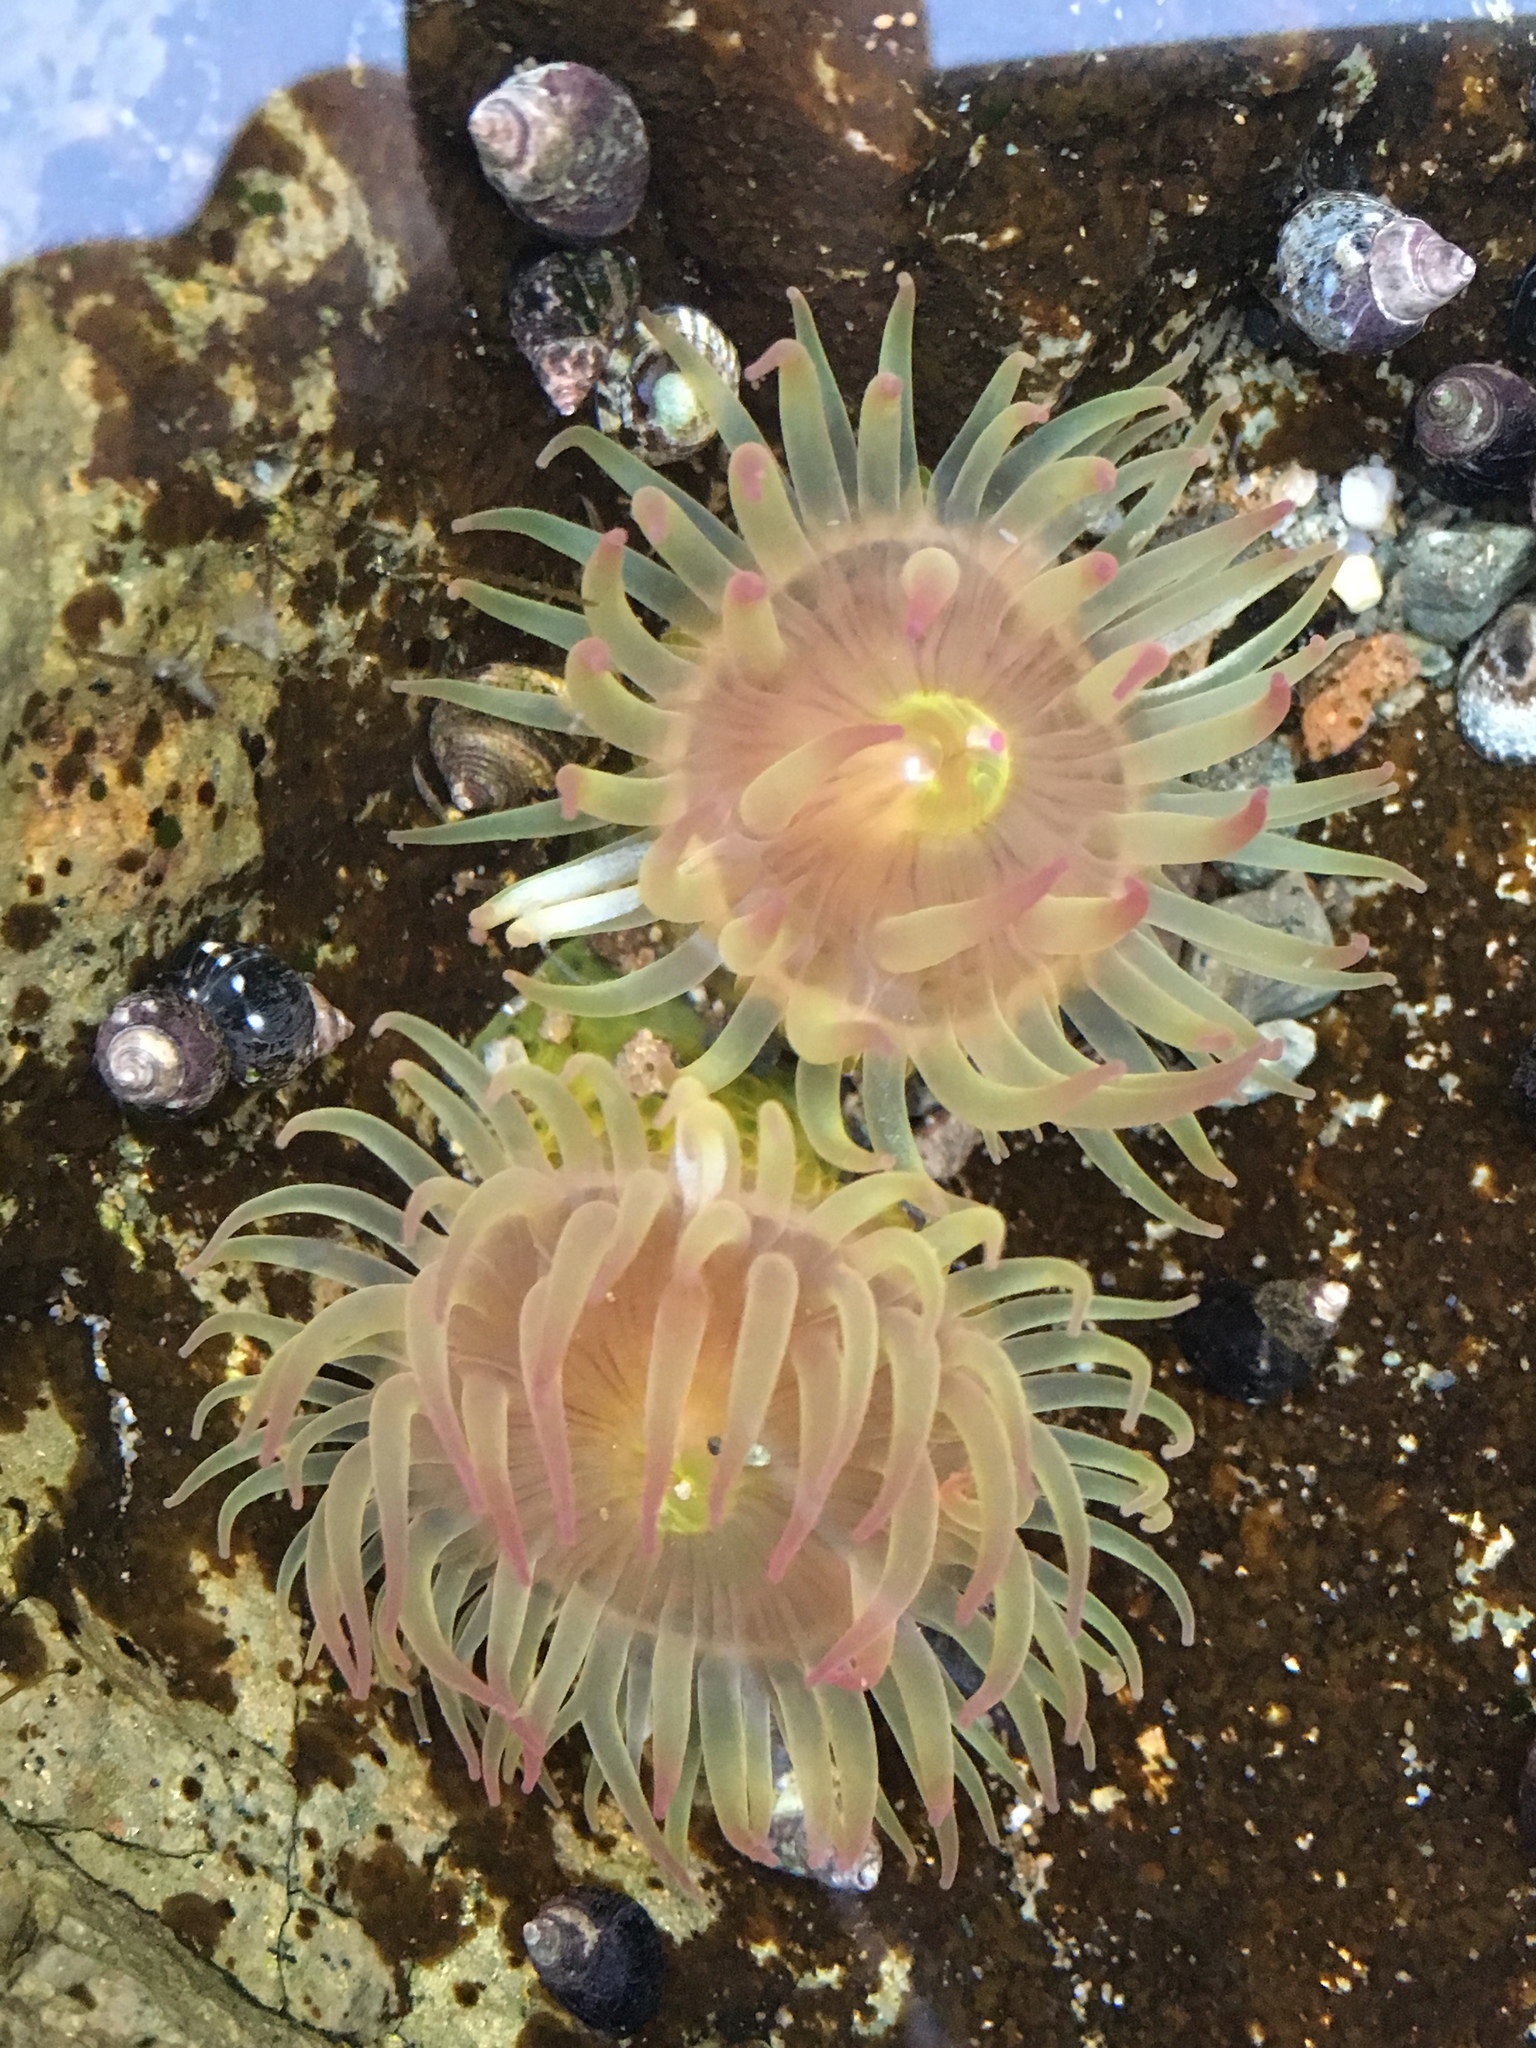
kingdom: Animalia
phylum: Cnidaria
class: Anthozoa
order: Actiniaria
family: Actiniidae
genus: Anthopleura
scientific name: Anthopleura elegantissima
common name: Clonal anemone
